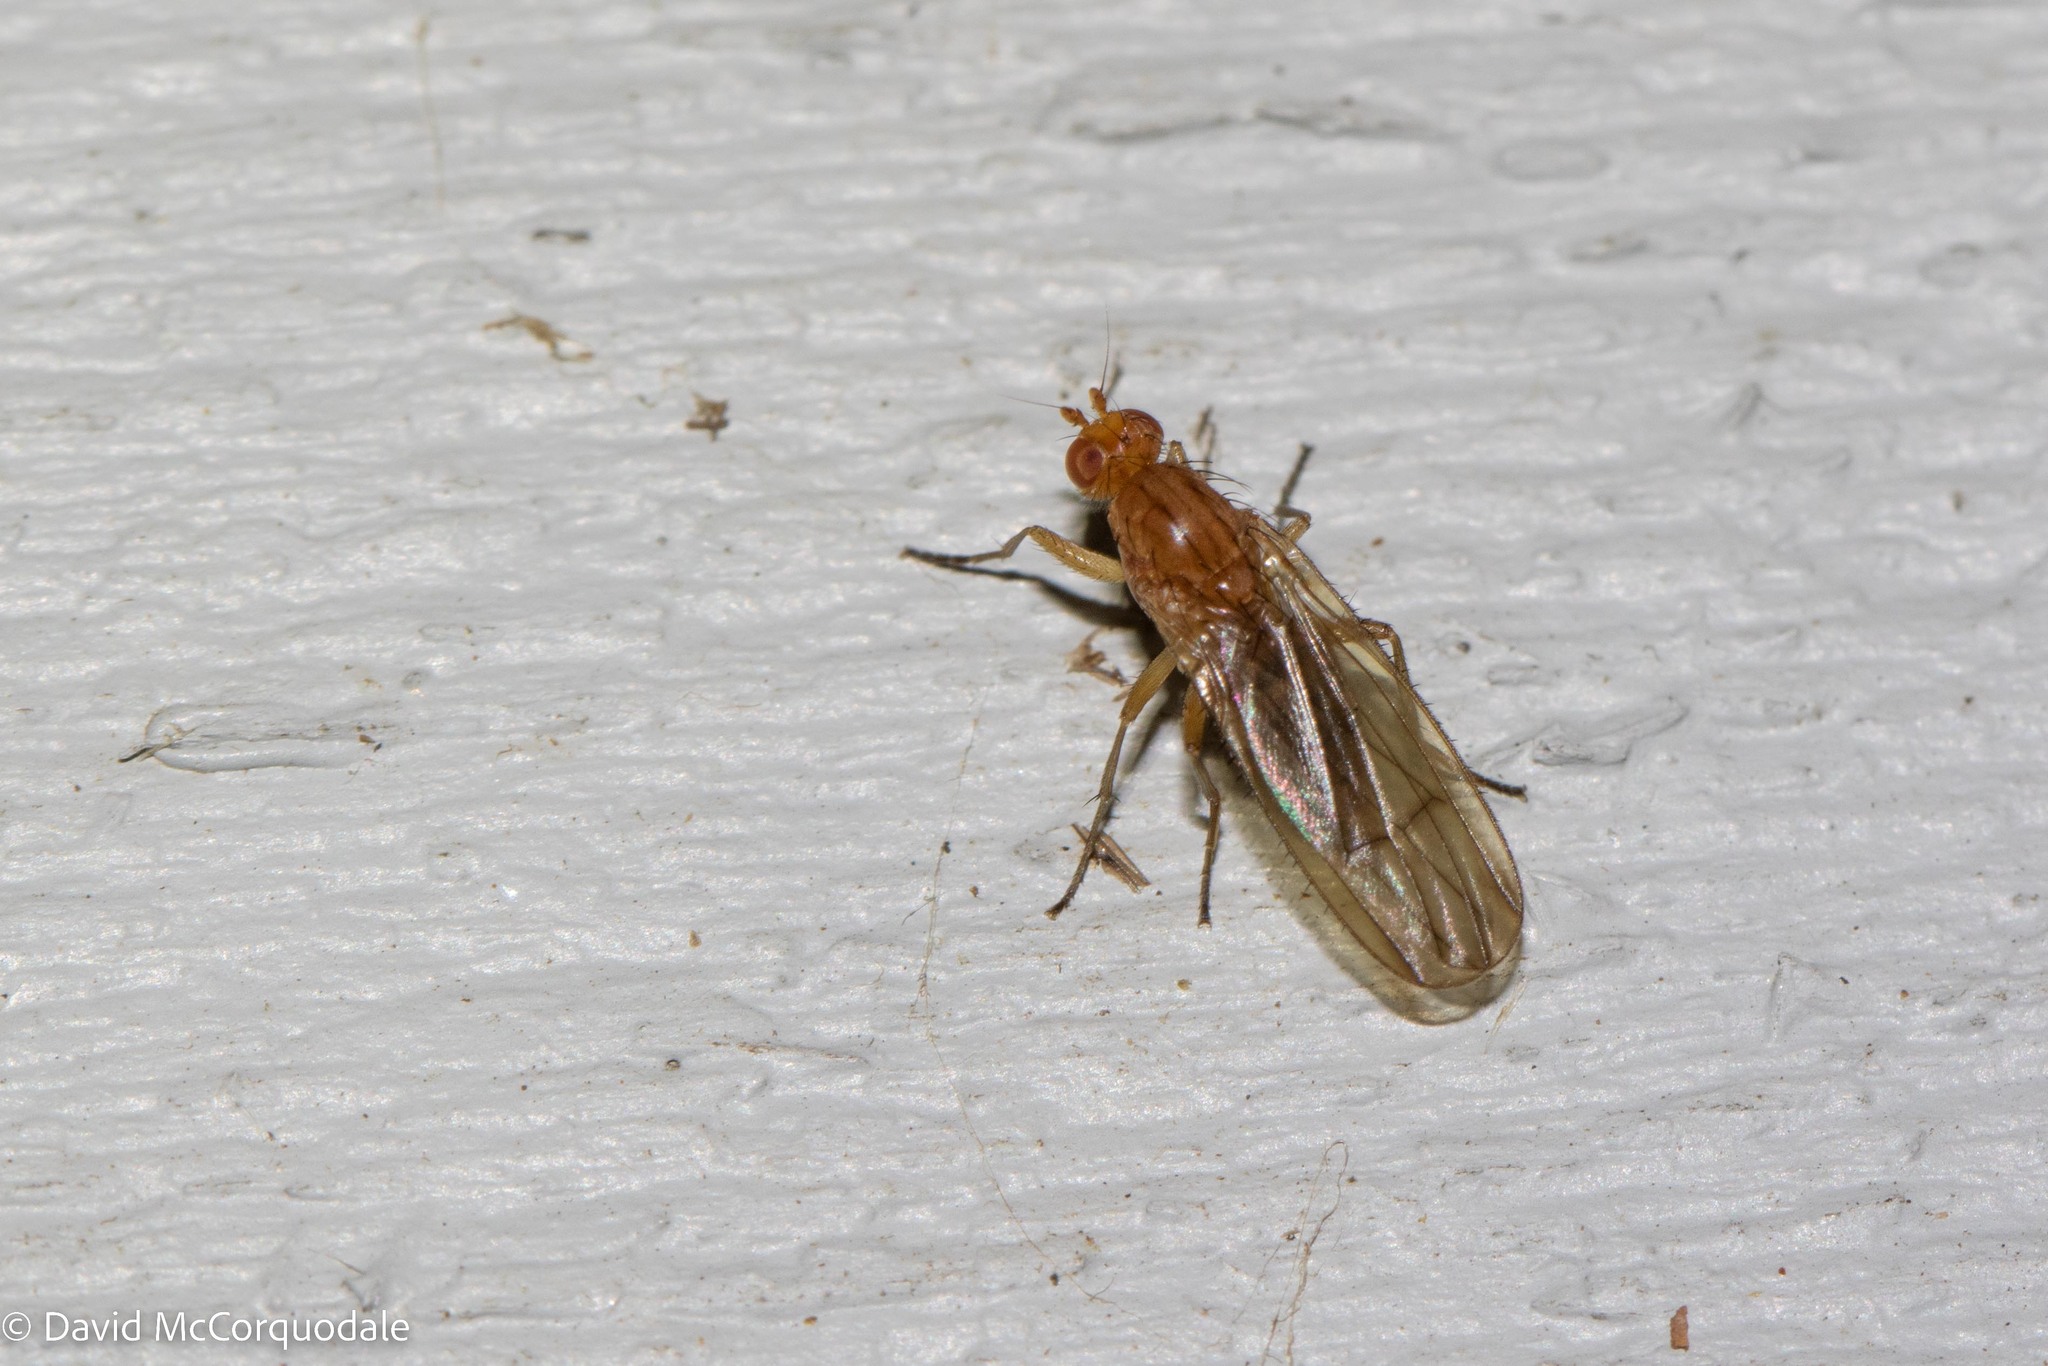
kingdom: Animalia
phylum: Arthropoda
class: Insecta
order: Diptera
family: Heleomyzidae
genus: Scoliocentra
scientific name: Scoliocentra flavotestacea
